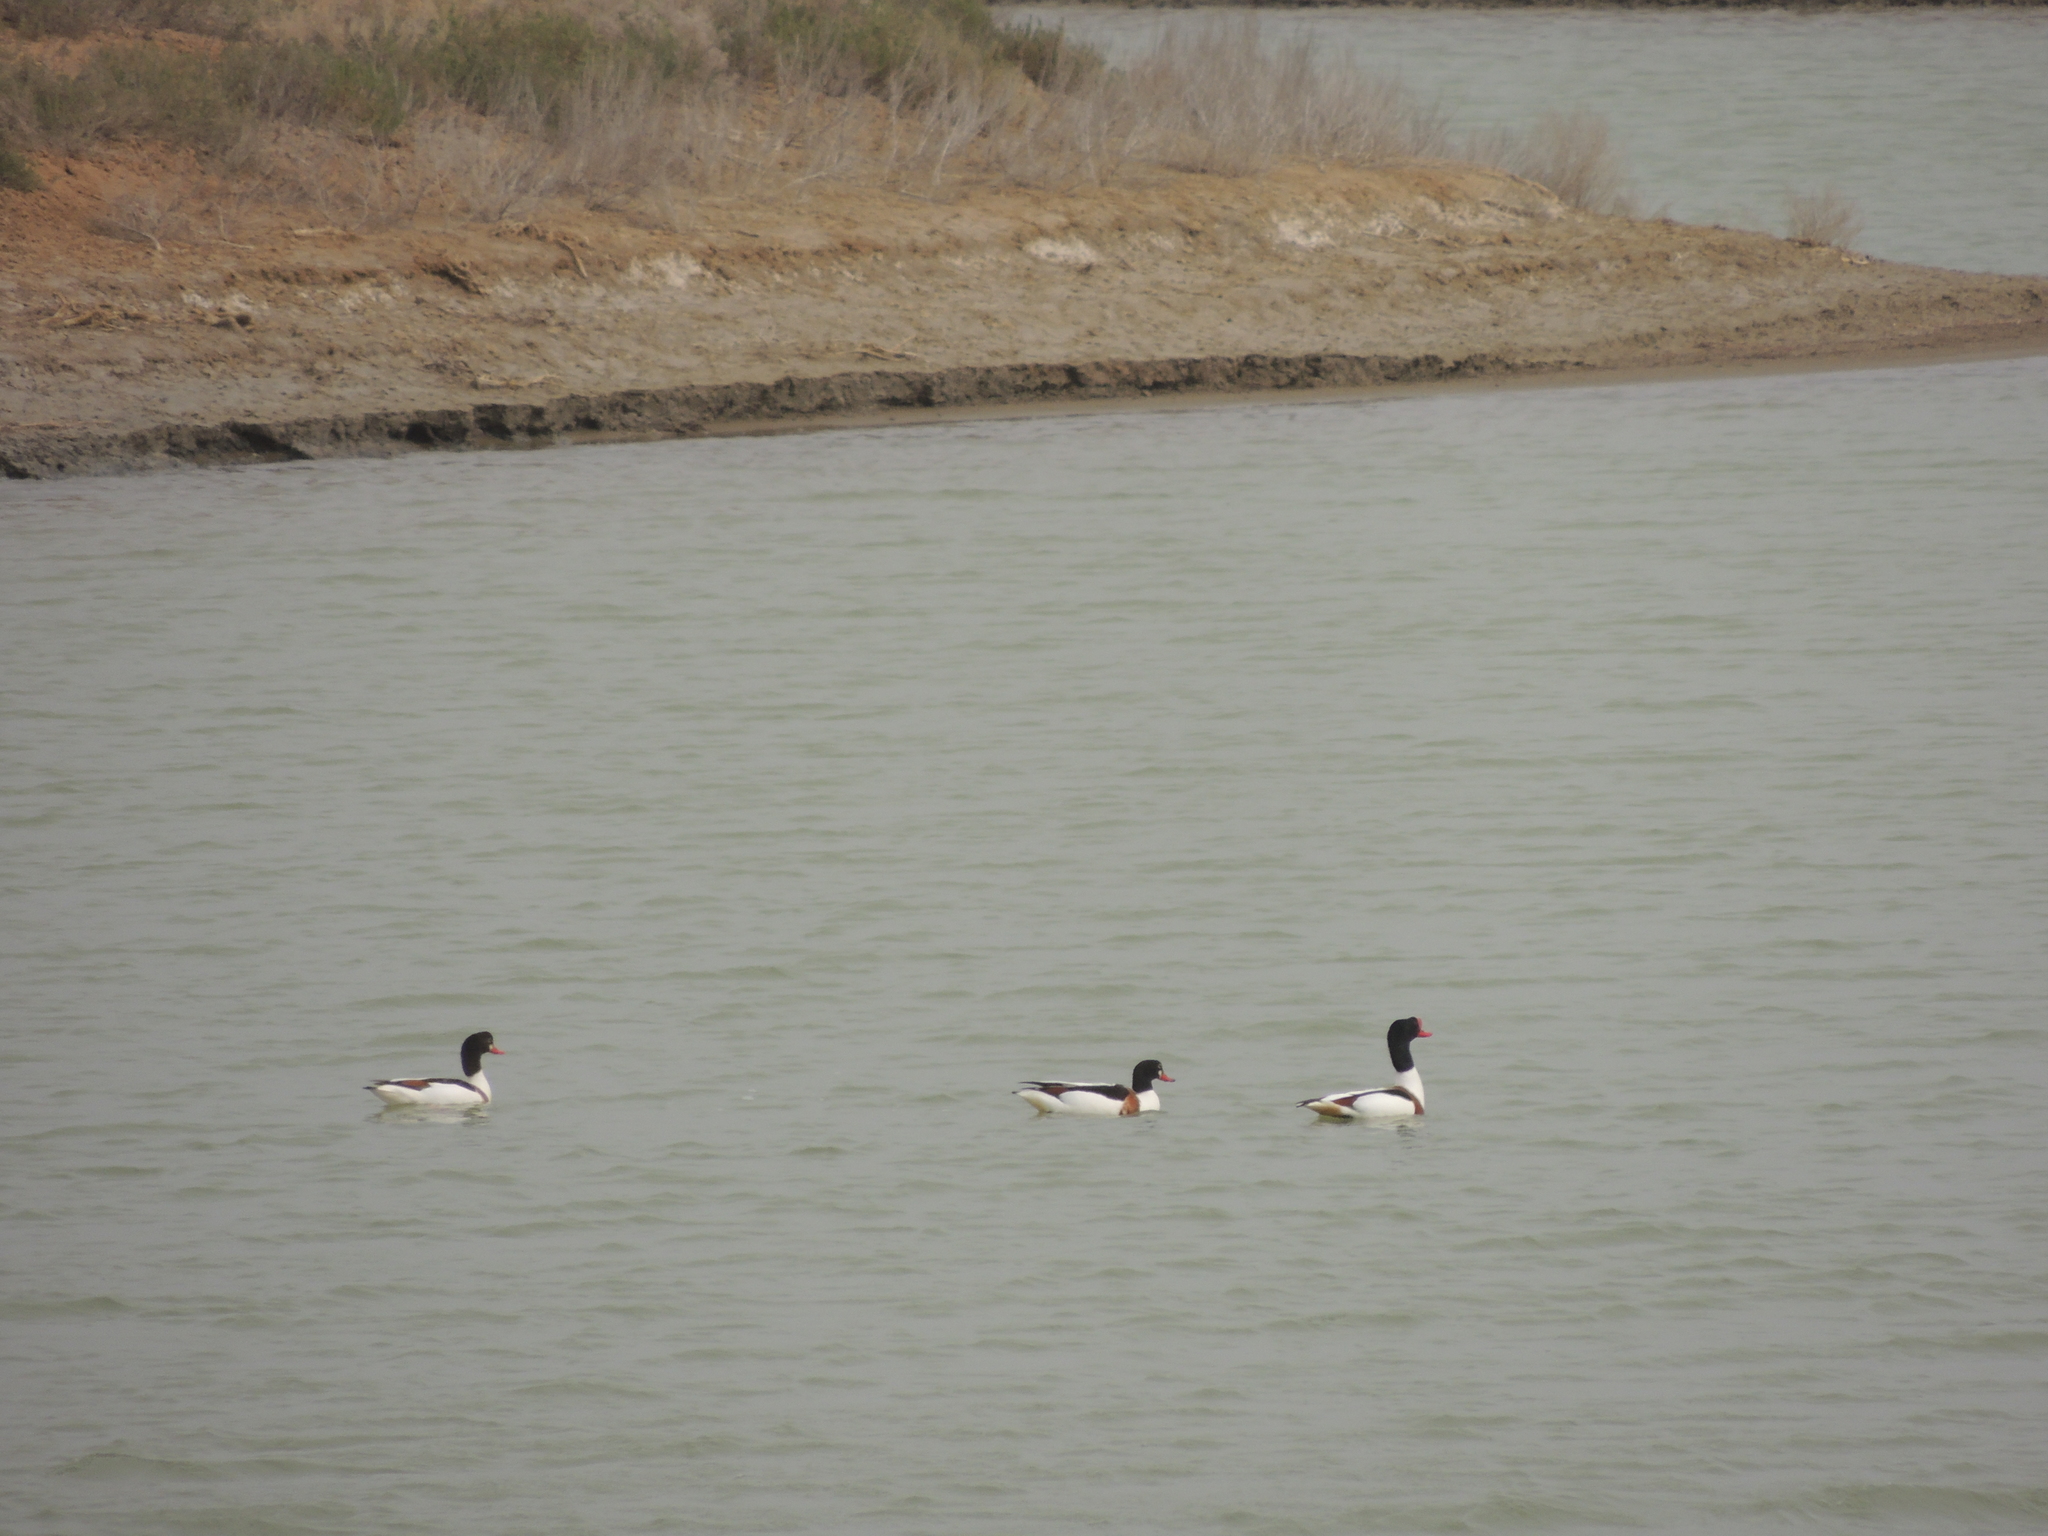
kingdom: Animalia
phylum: Chordata
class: Aves
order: Anseriformes
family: Anatidae
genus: Tadorna
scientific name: Tadorna tadorna
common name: Common shelduck
